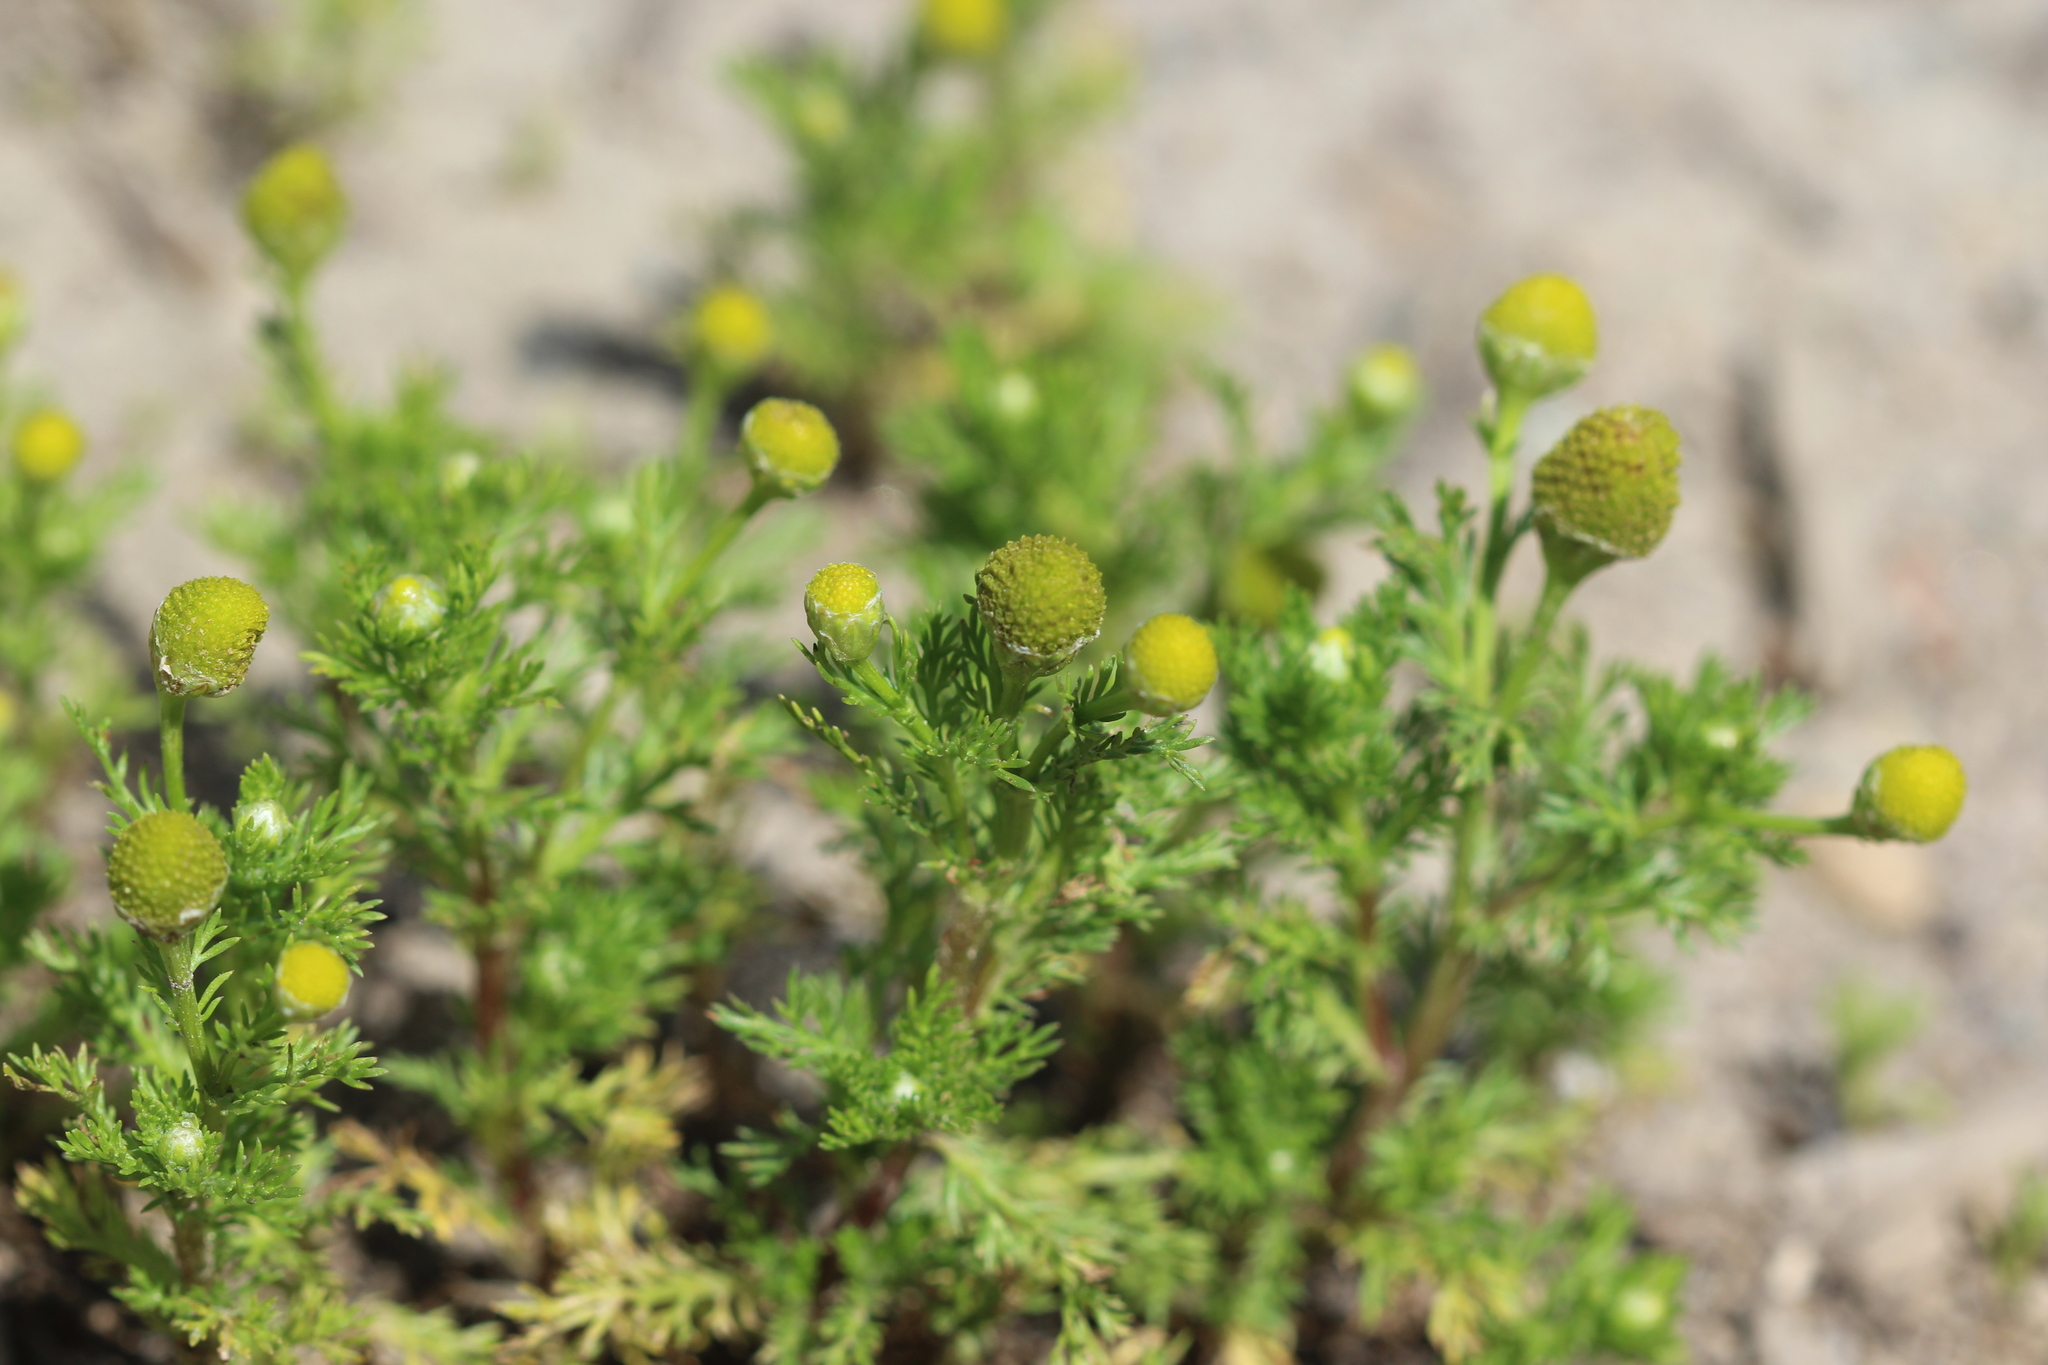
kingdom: Plantae
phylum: Tracheophyta
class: Magnoliopsida
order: Asterales
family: Asteraceae
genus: Matricaria
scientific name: Matricaria discoidea
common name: Disc mayweed
